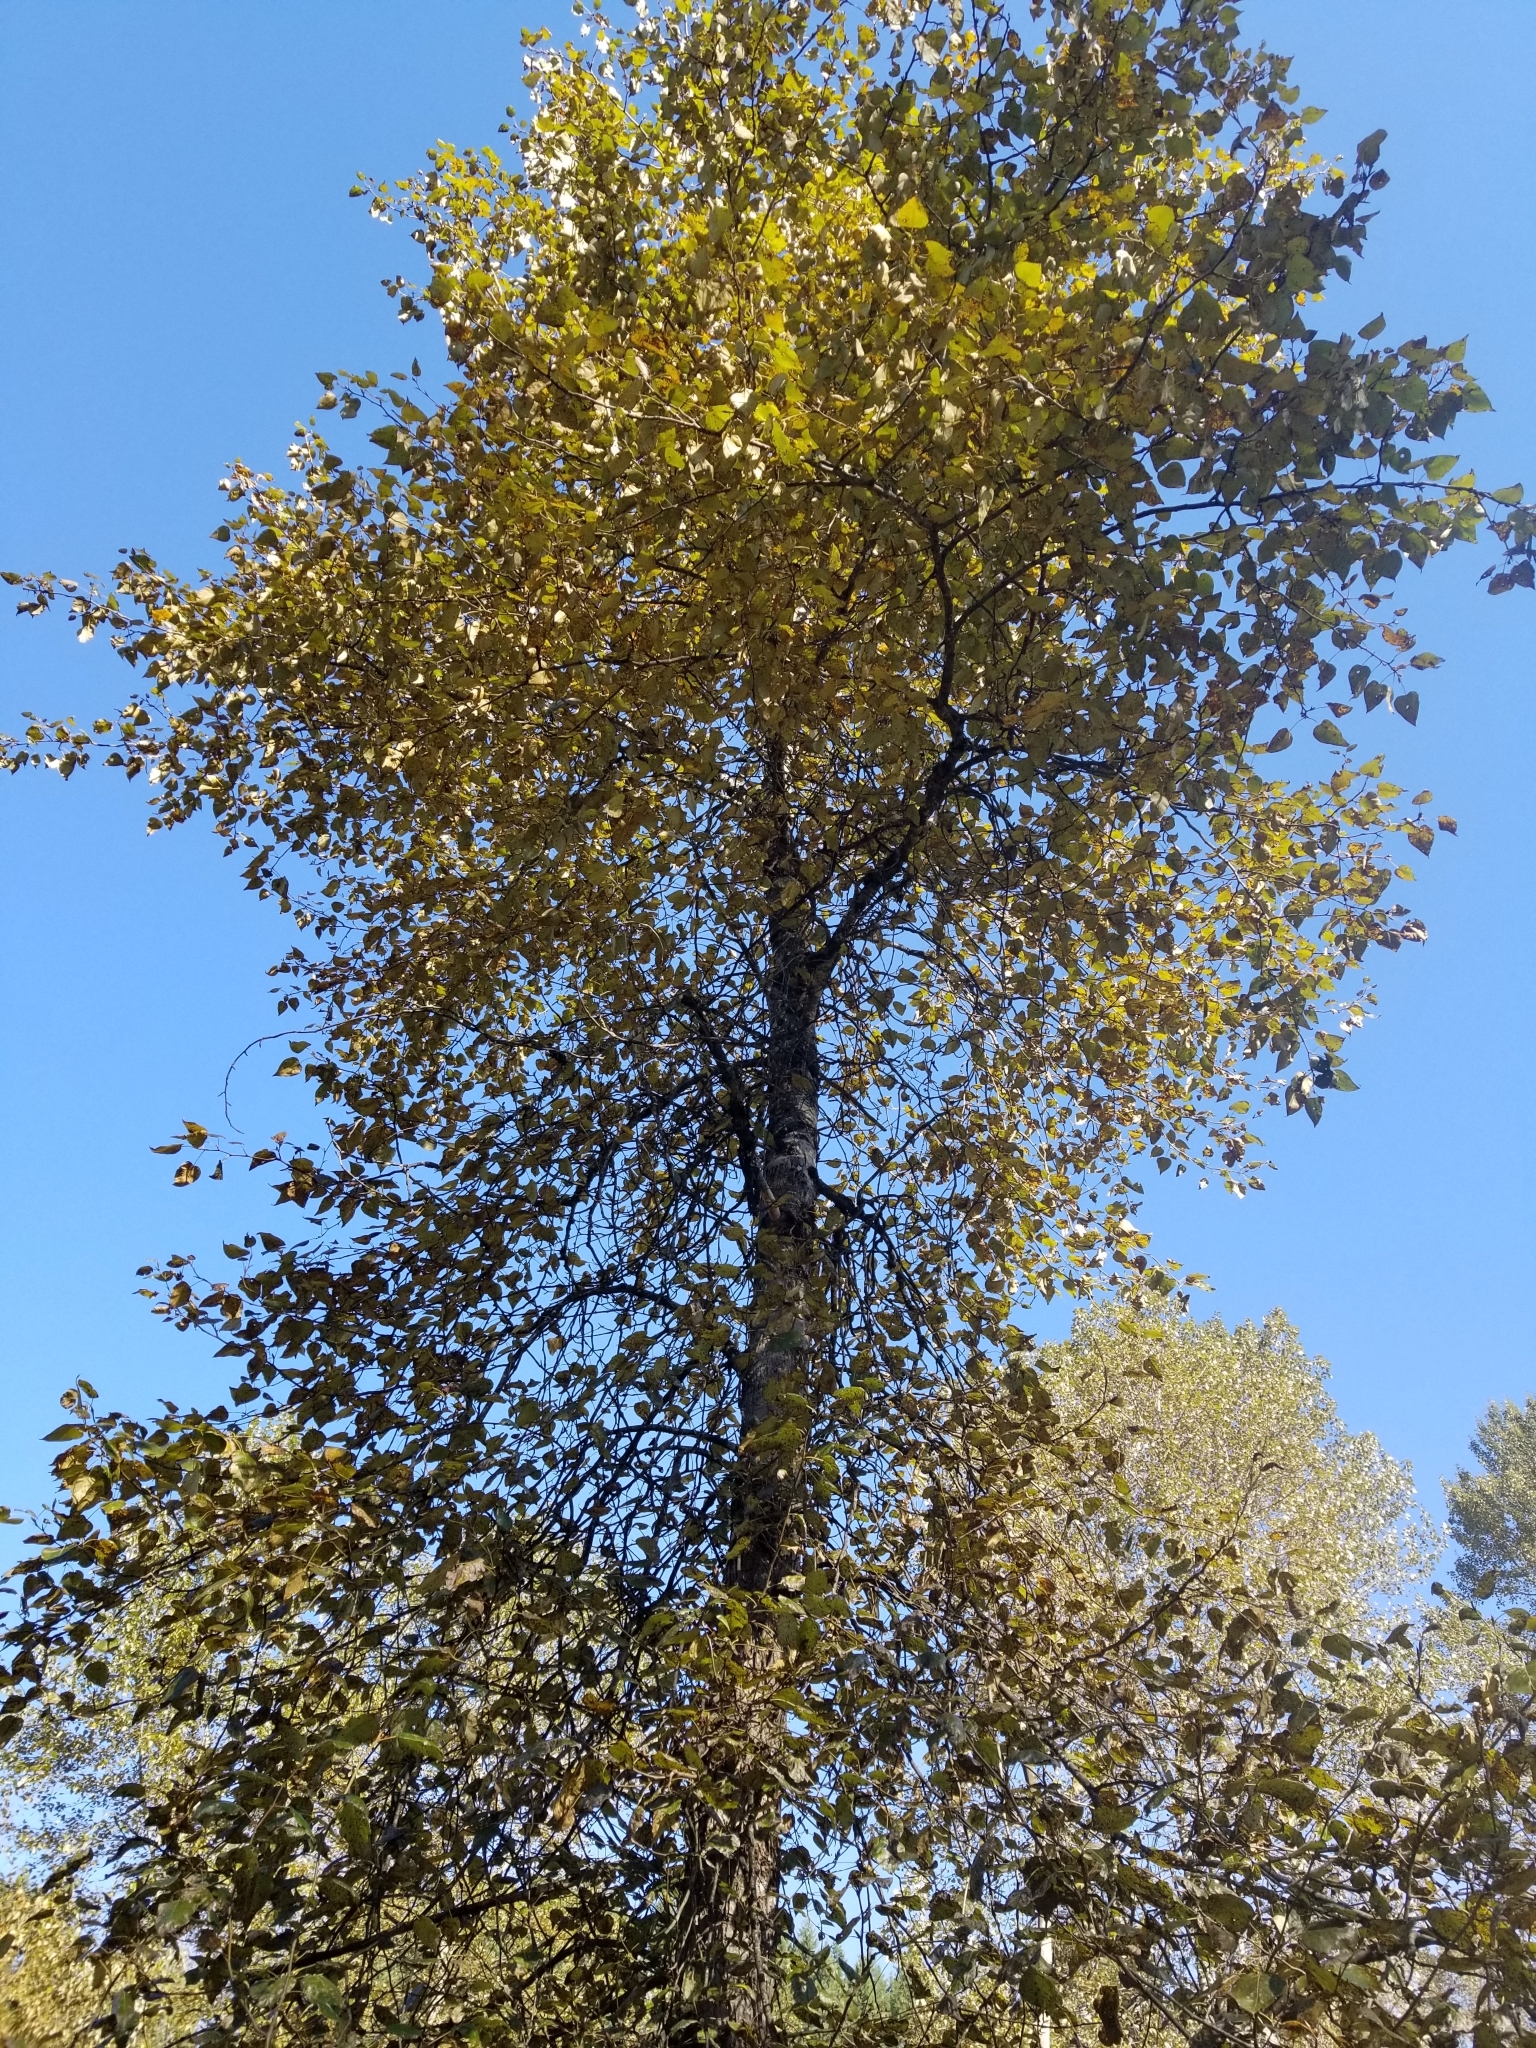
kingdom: Plantae
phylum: Tracheophyta
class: Magnoliopsida
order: Malpighiales
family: Salicaceae
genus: Populus
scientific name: Populus trichocarpa
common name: Black cottonwood
